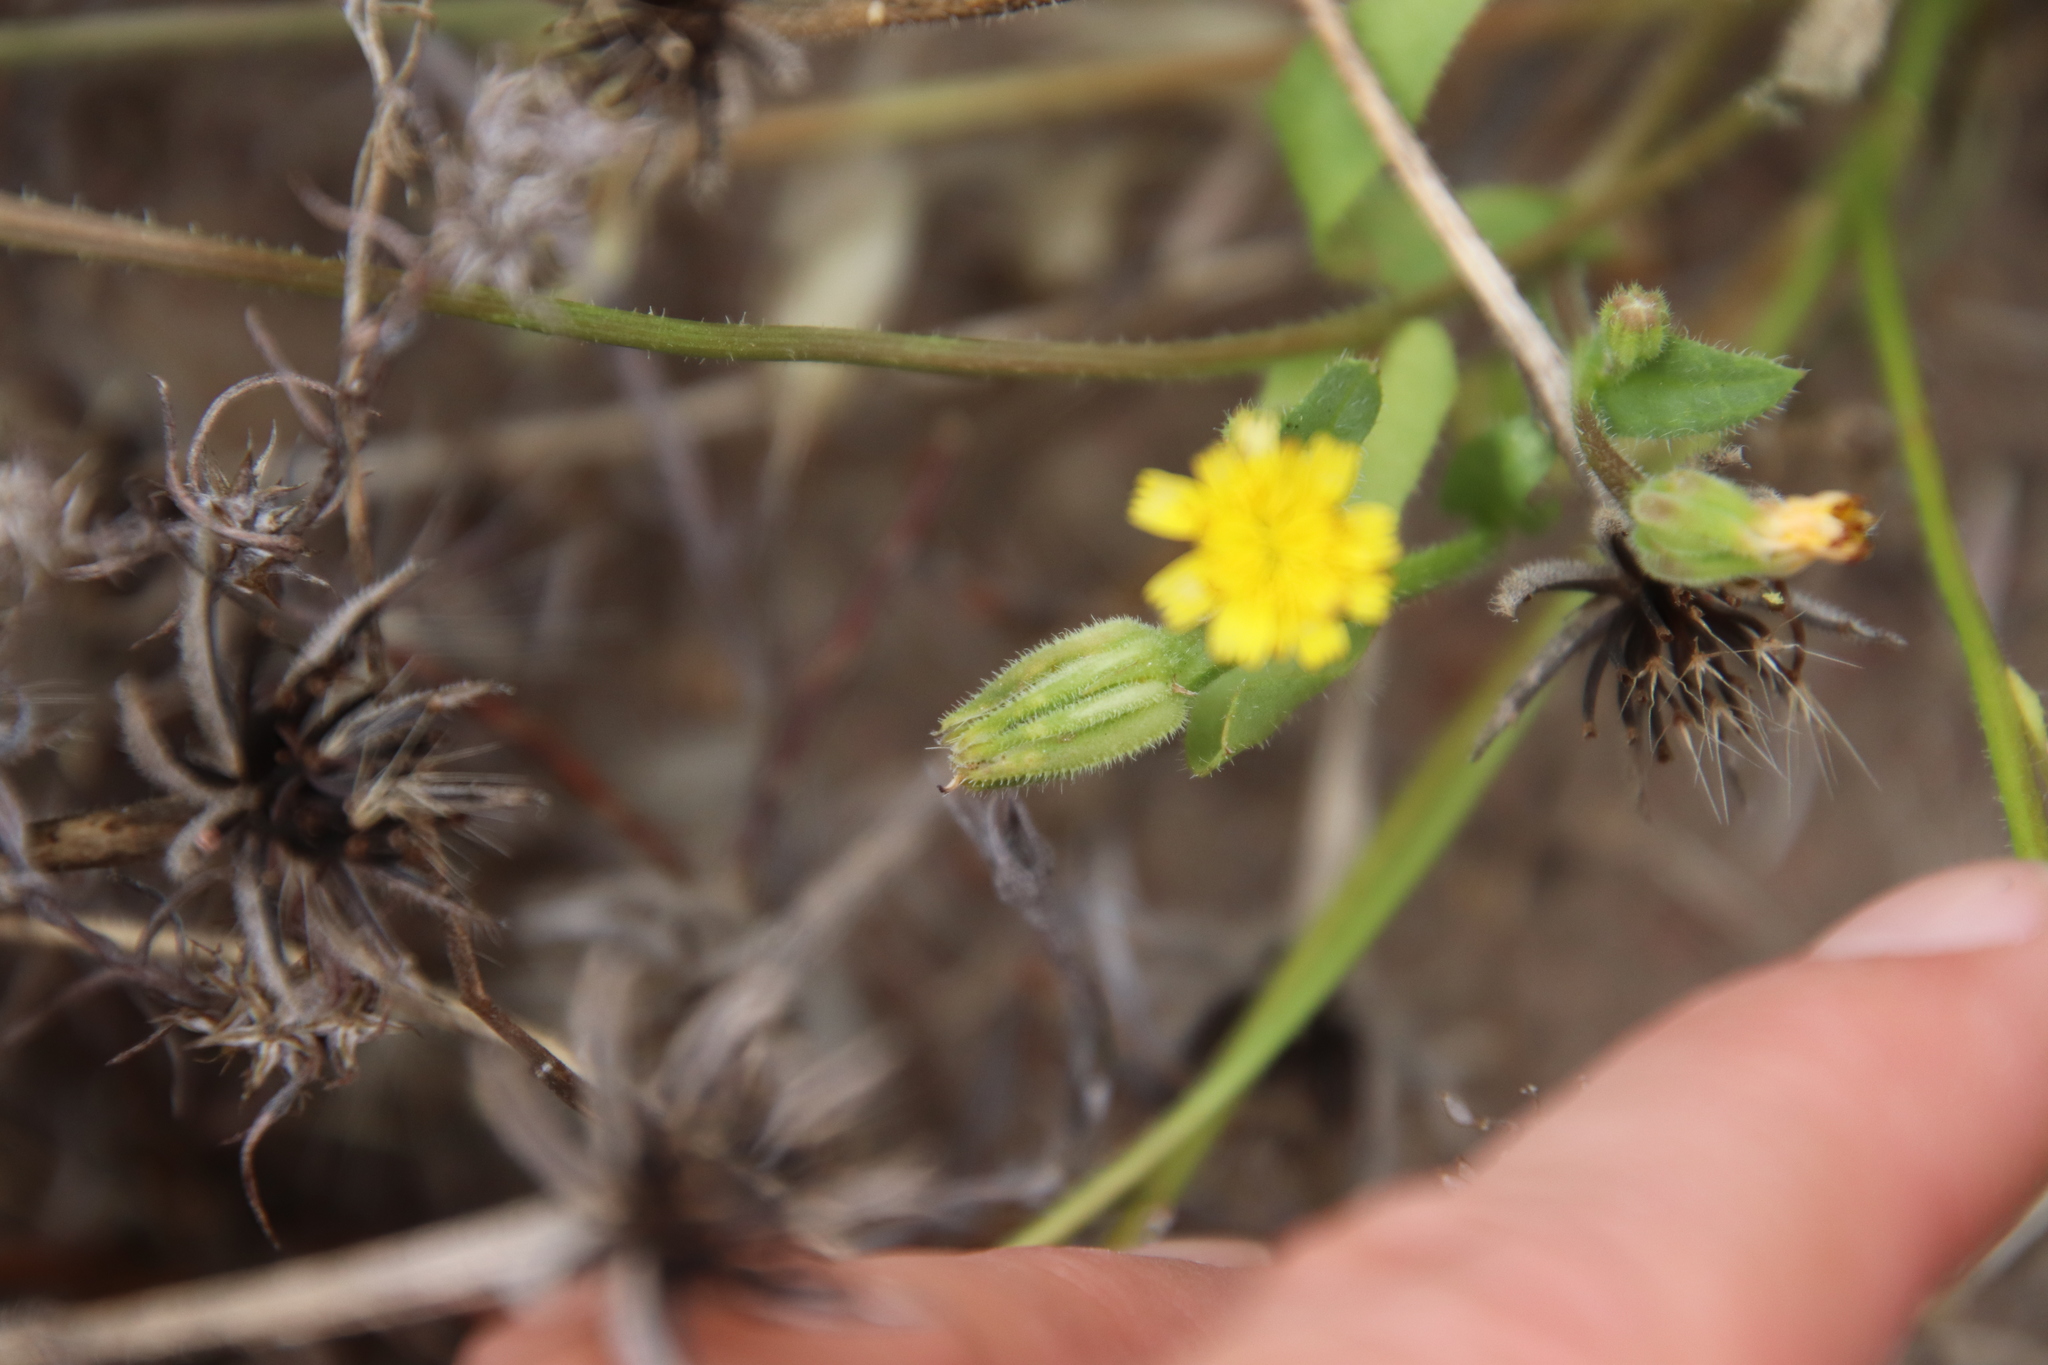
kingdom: Plantae
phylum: Tracheophyta
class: Magnoliopsida
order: Asterales
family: Asteraceae
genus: Hedypnois
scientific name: Hedypnois rhagadioloides
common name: Cretan weed
